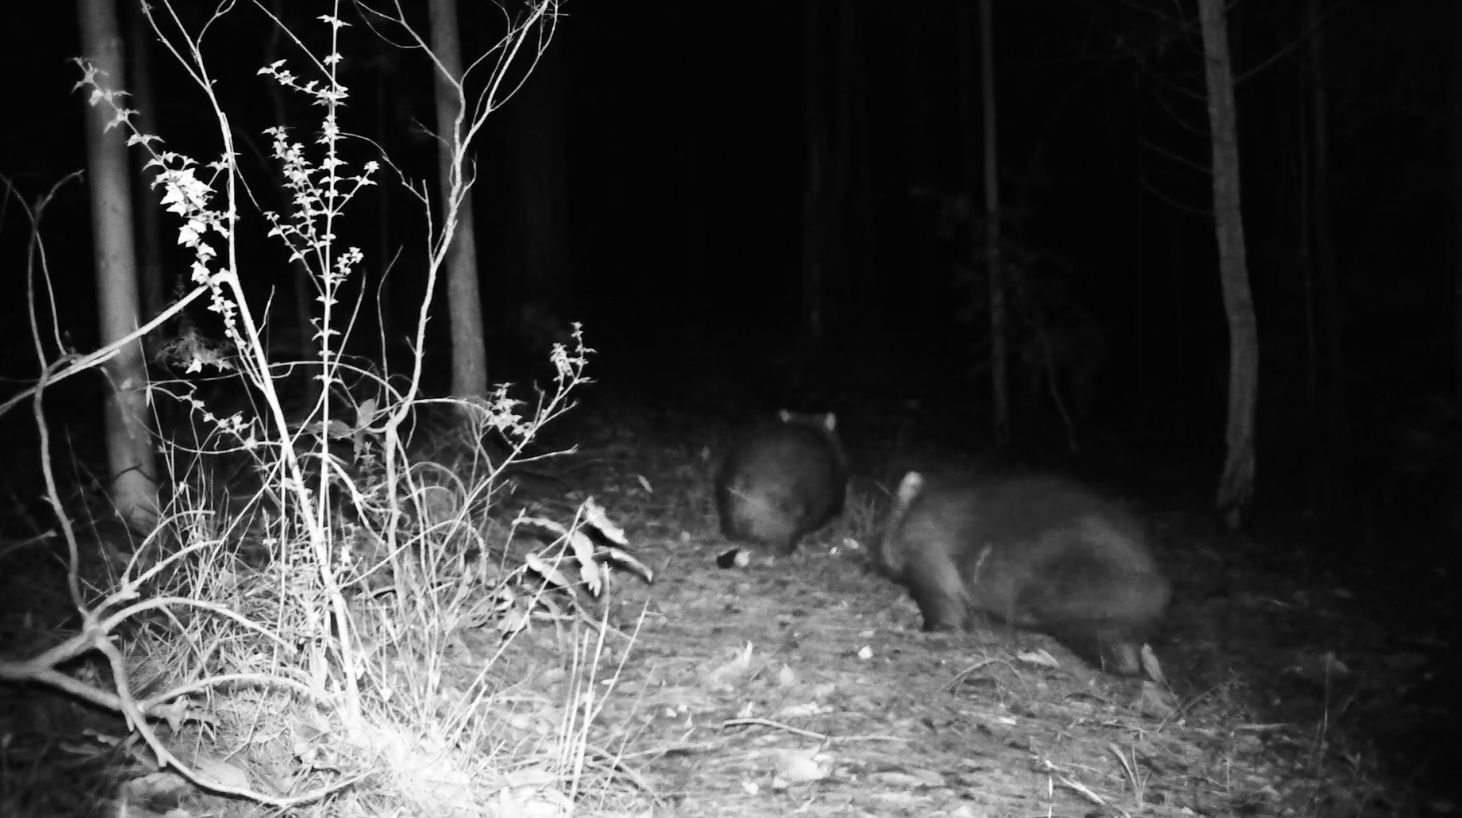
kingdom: Animalia
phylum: Chordata
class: Mammalia
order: Diprotodontia
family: Vombatidae
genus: Vombatus
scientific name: Vombatus ursinus
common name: Common wombat
